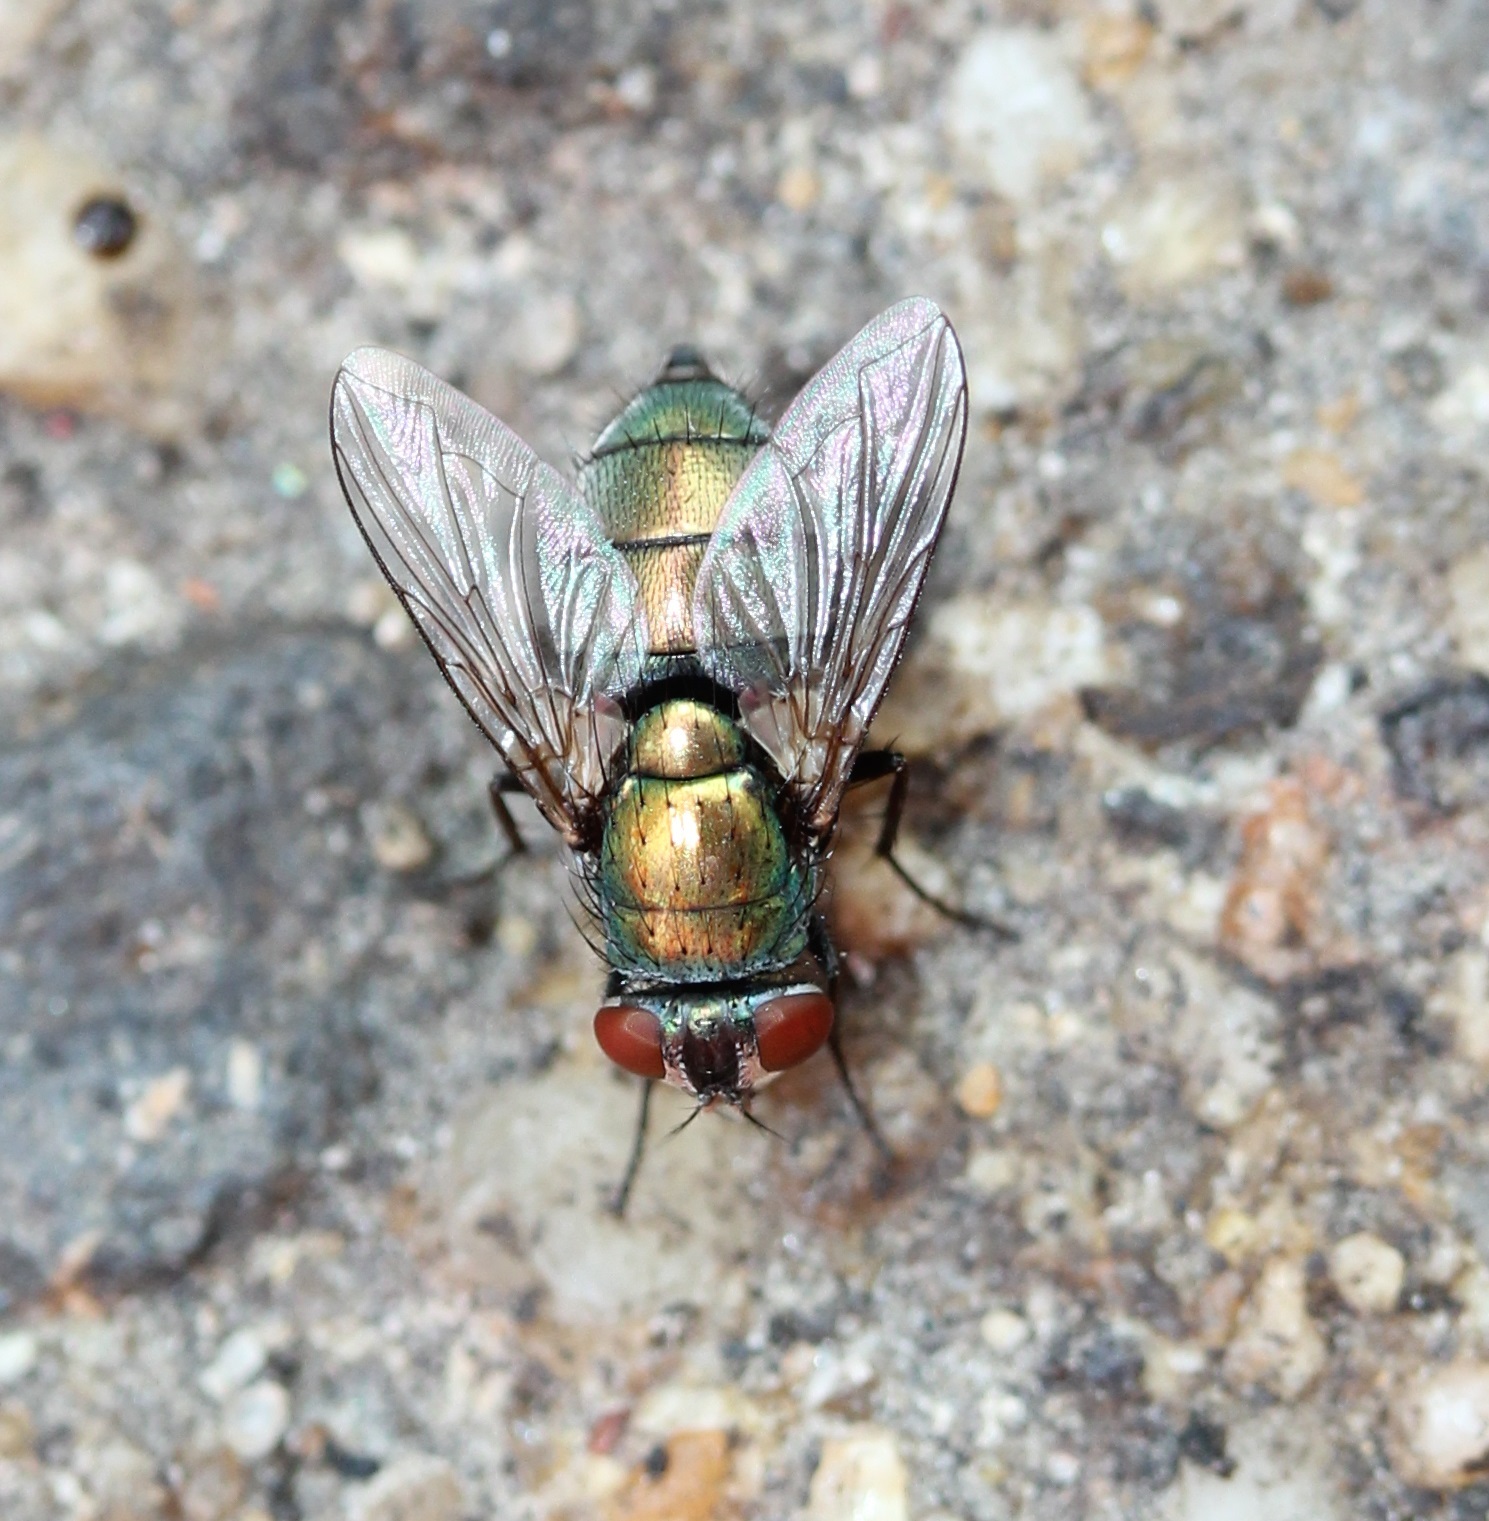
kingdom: Animalia
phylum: Arthropoda
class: Insecta
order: Diptera
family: Calliphoridae
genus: Lucilia
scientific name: Lucilia sericata
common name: Blow fly
